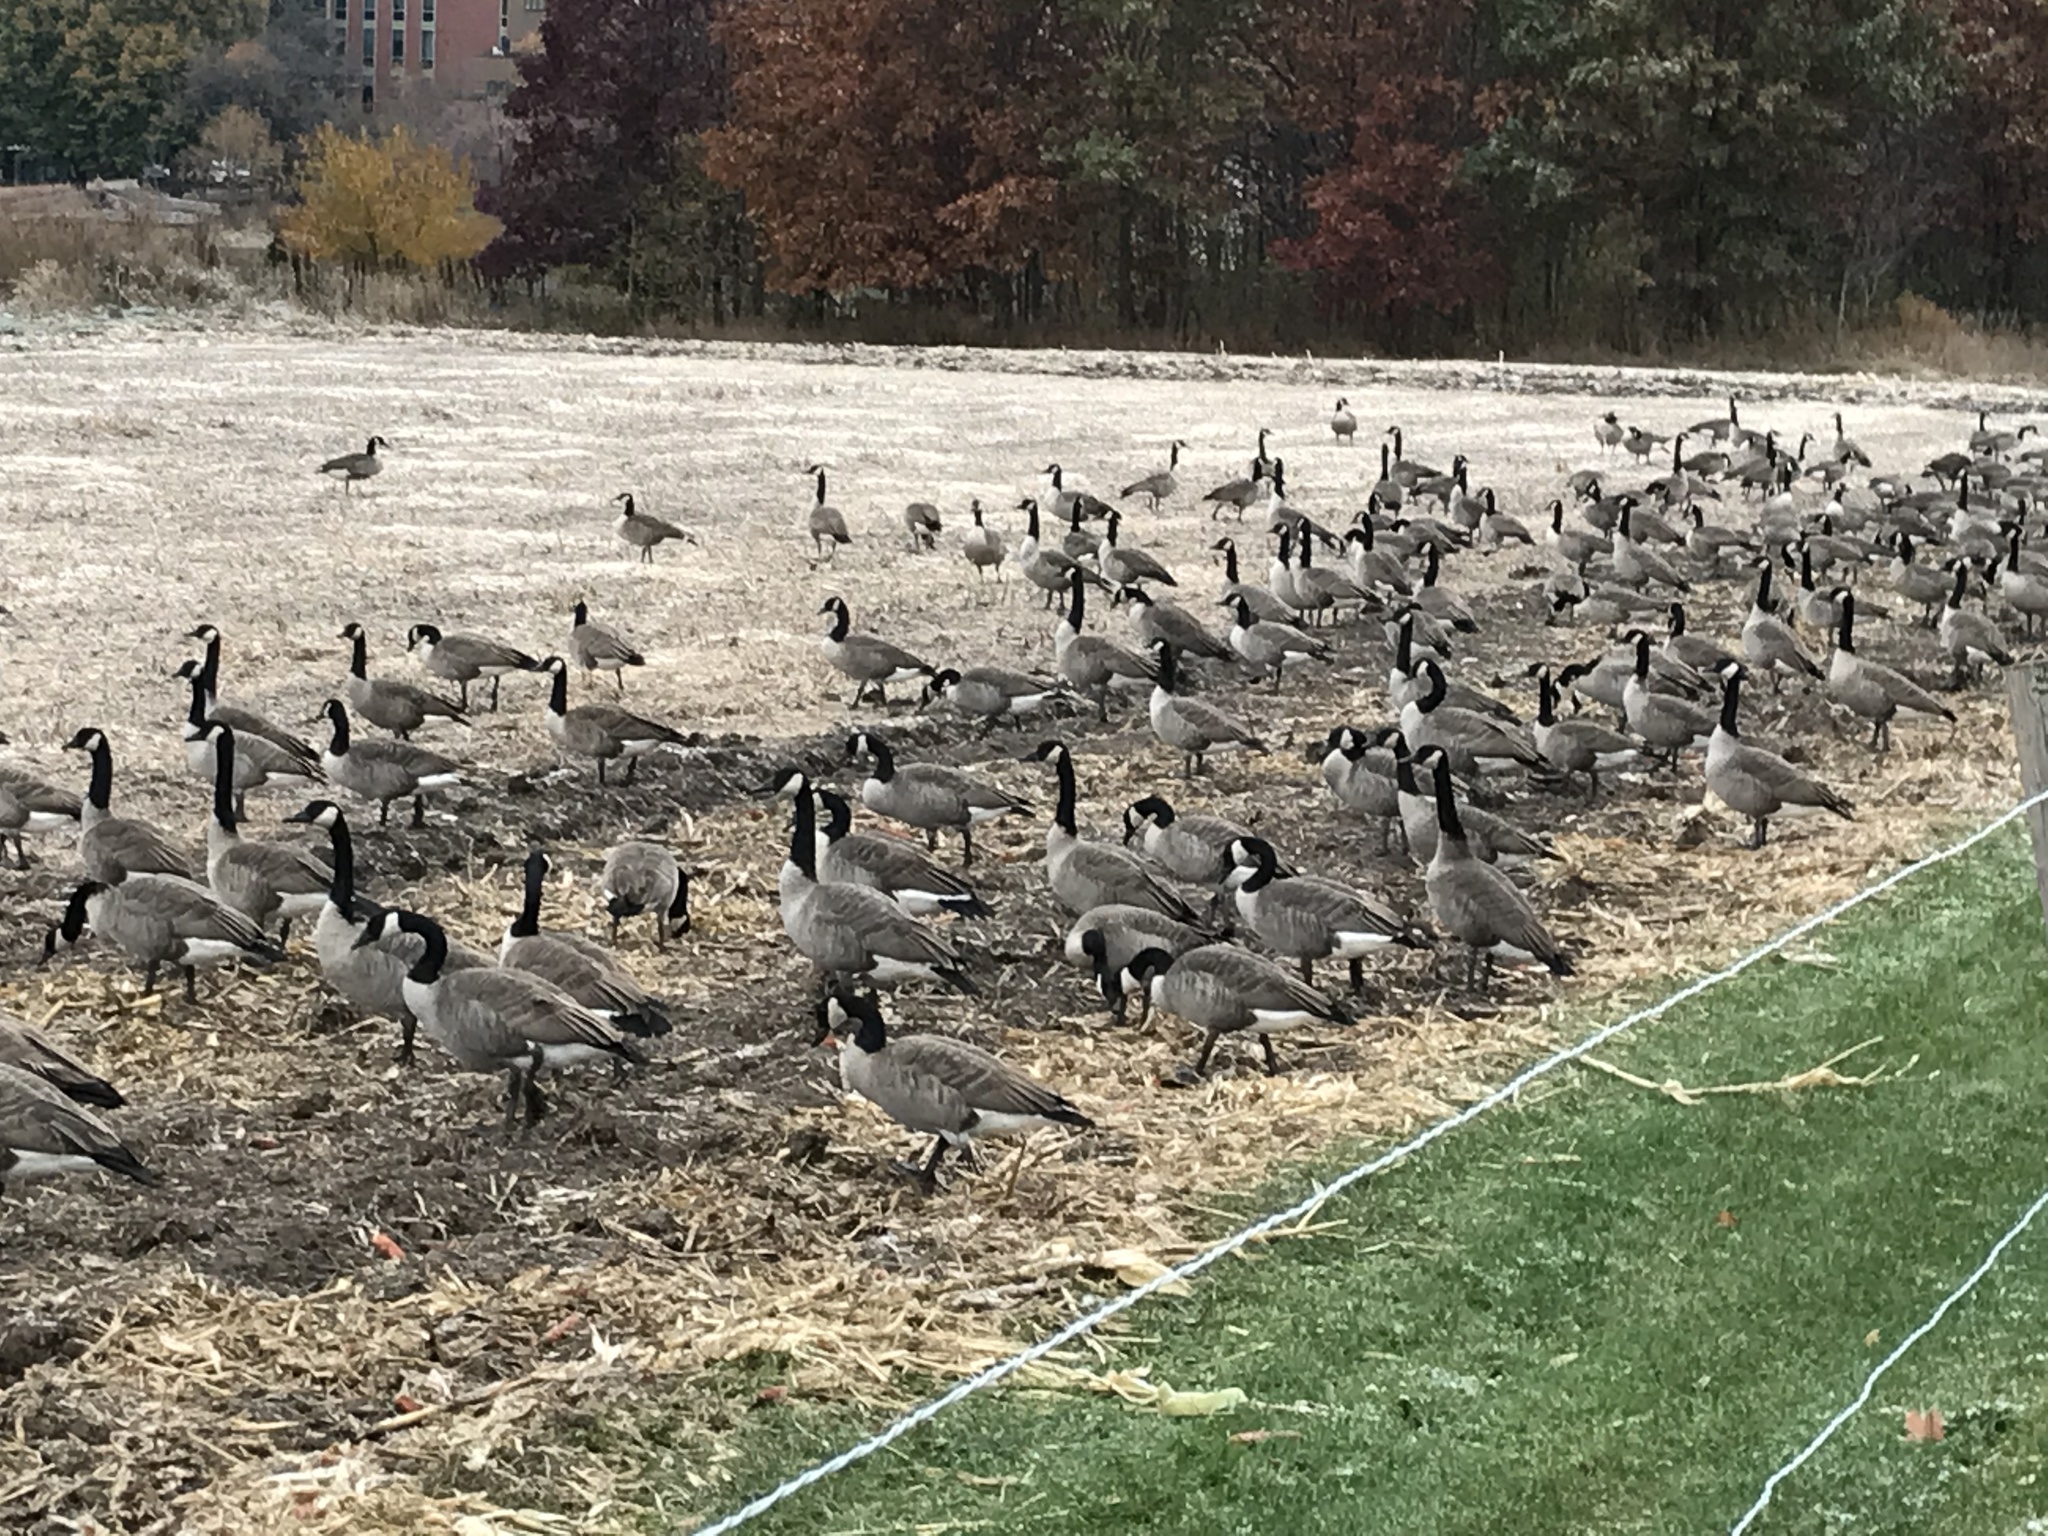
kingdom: Animalia
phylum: Chordata
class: Aves
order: Anseriformes
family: Anatidae
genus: Branta
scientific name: Branta canadensis
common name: Canada goose
